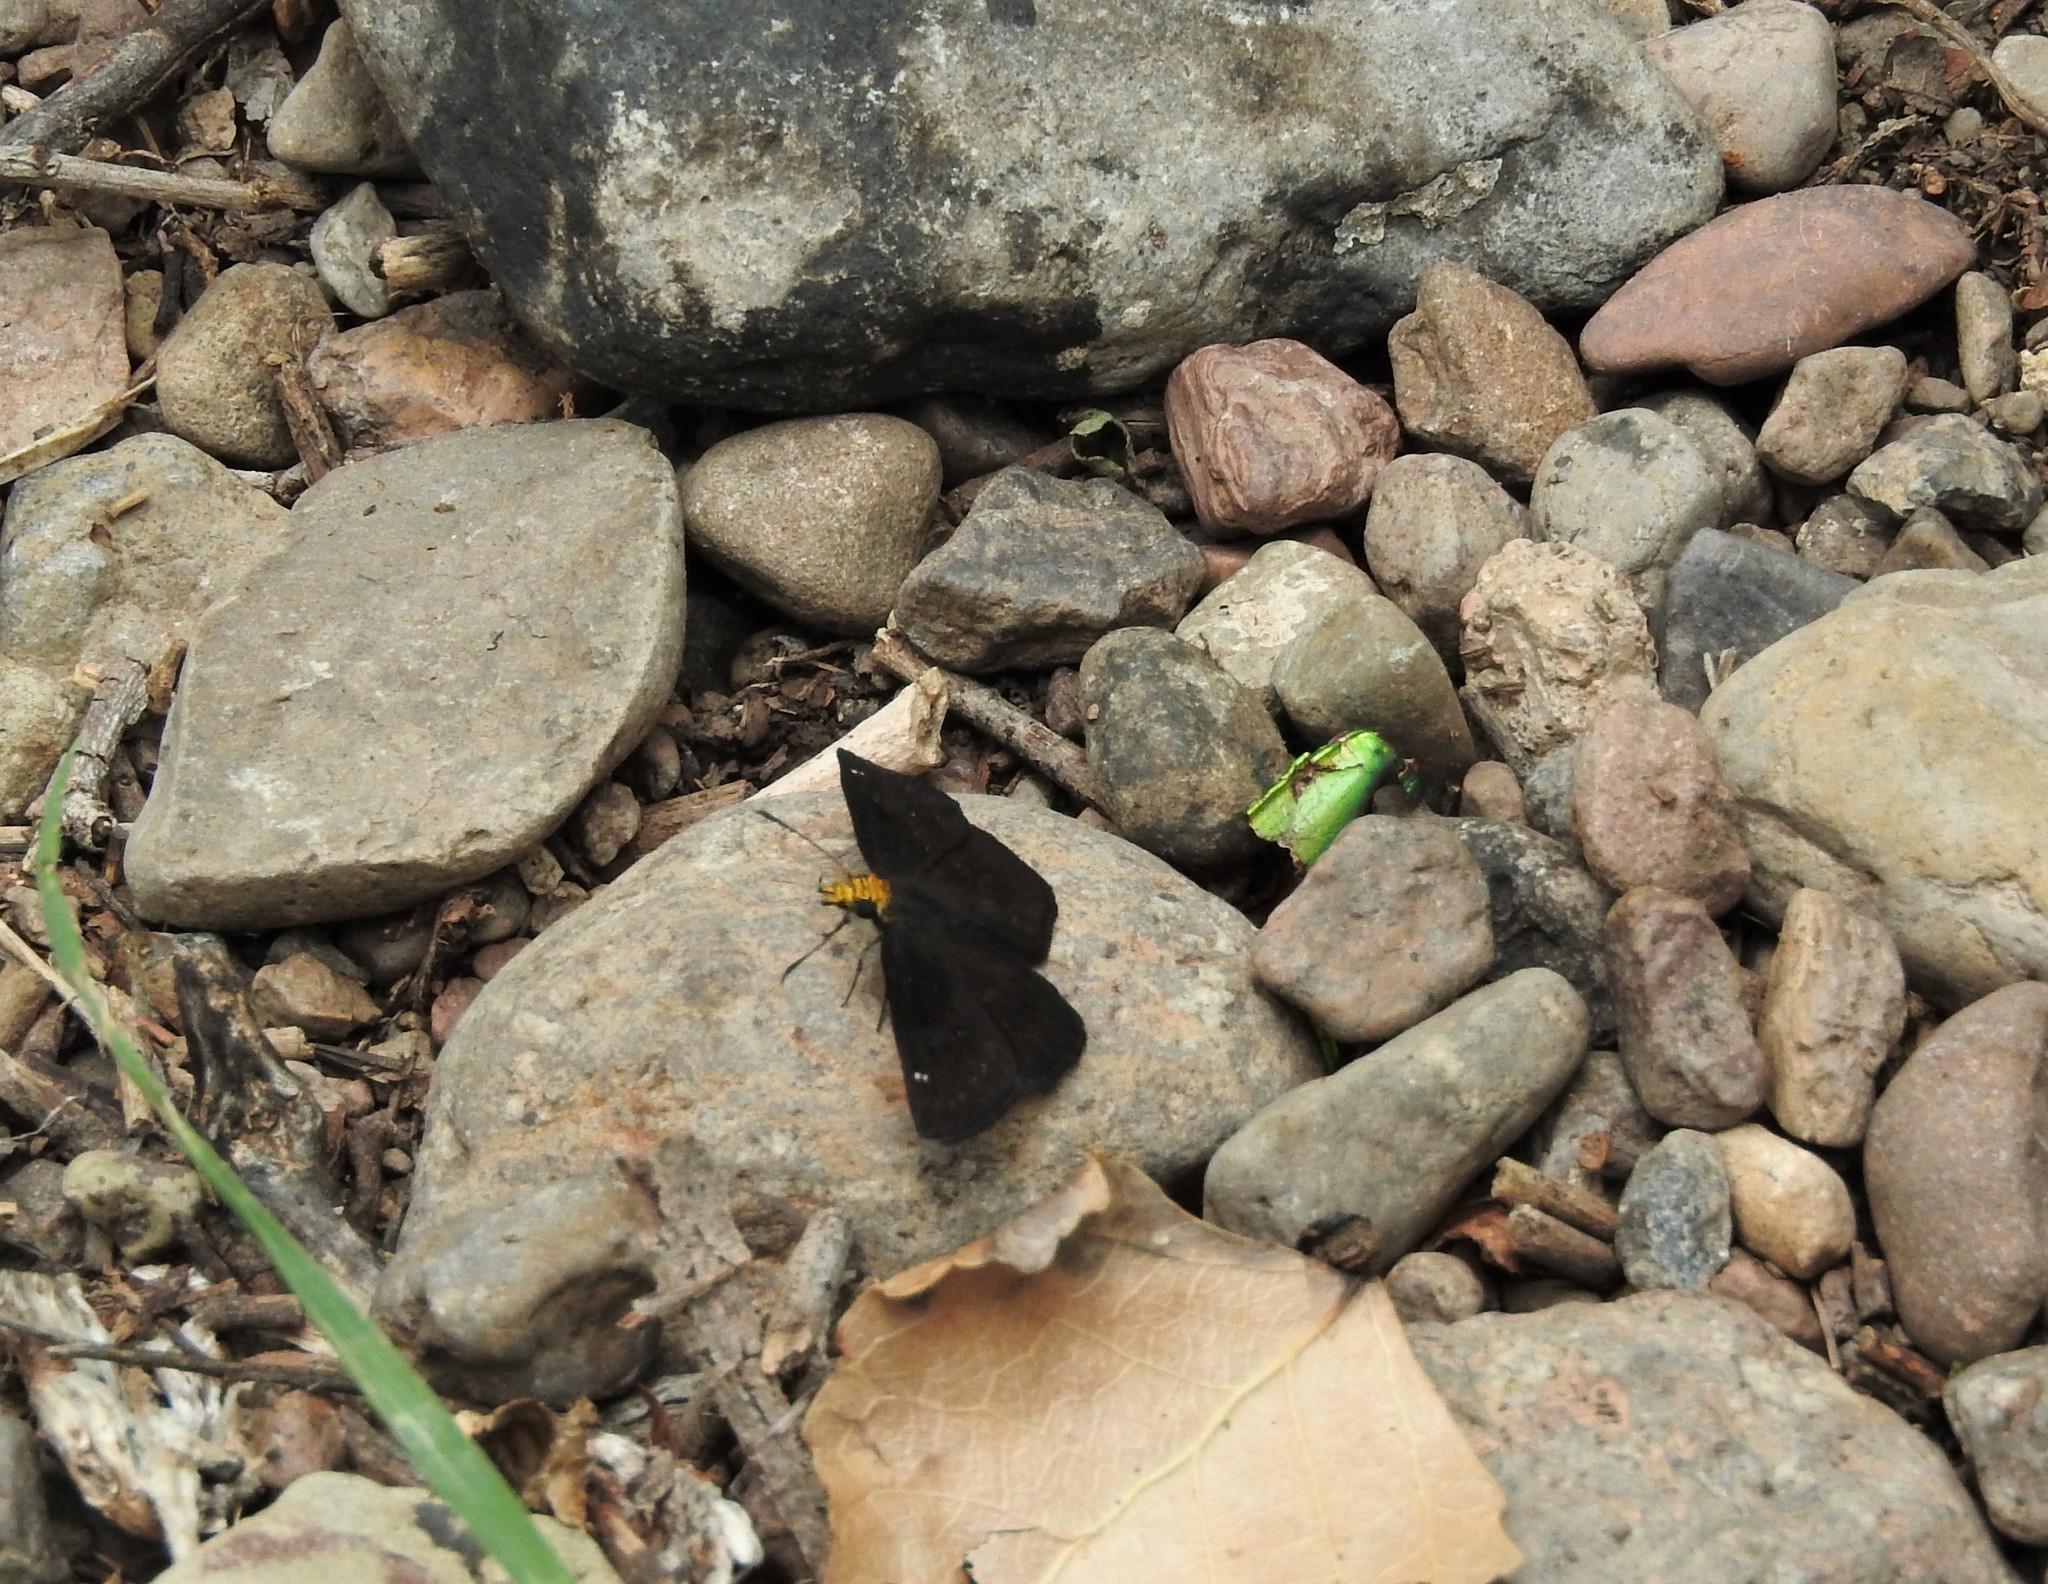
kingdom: Animalia
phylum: Arthropoda
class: Insecta
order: Lepidoptera
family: Hesperiidae
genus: Staphylus
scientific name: Staphylus ceos
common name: Golden-headed scallopwing
